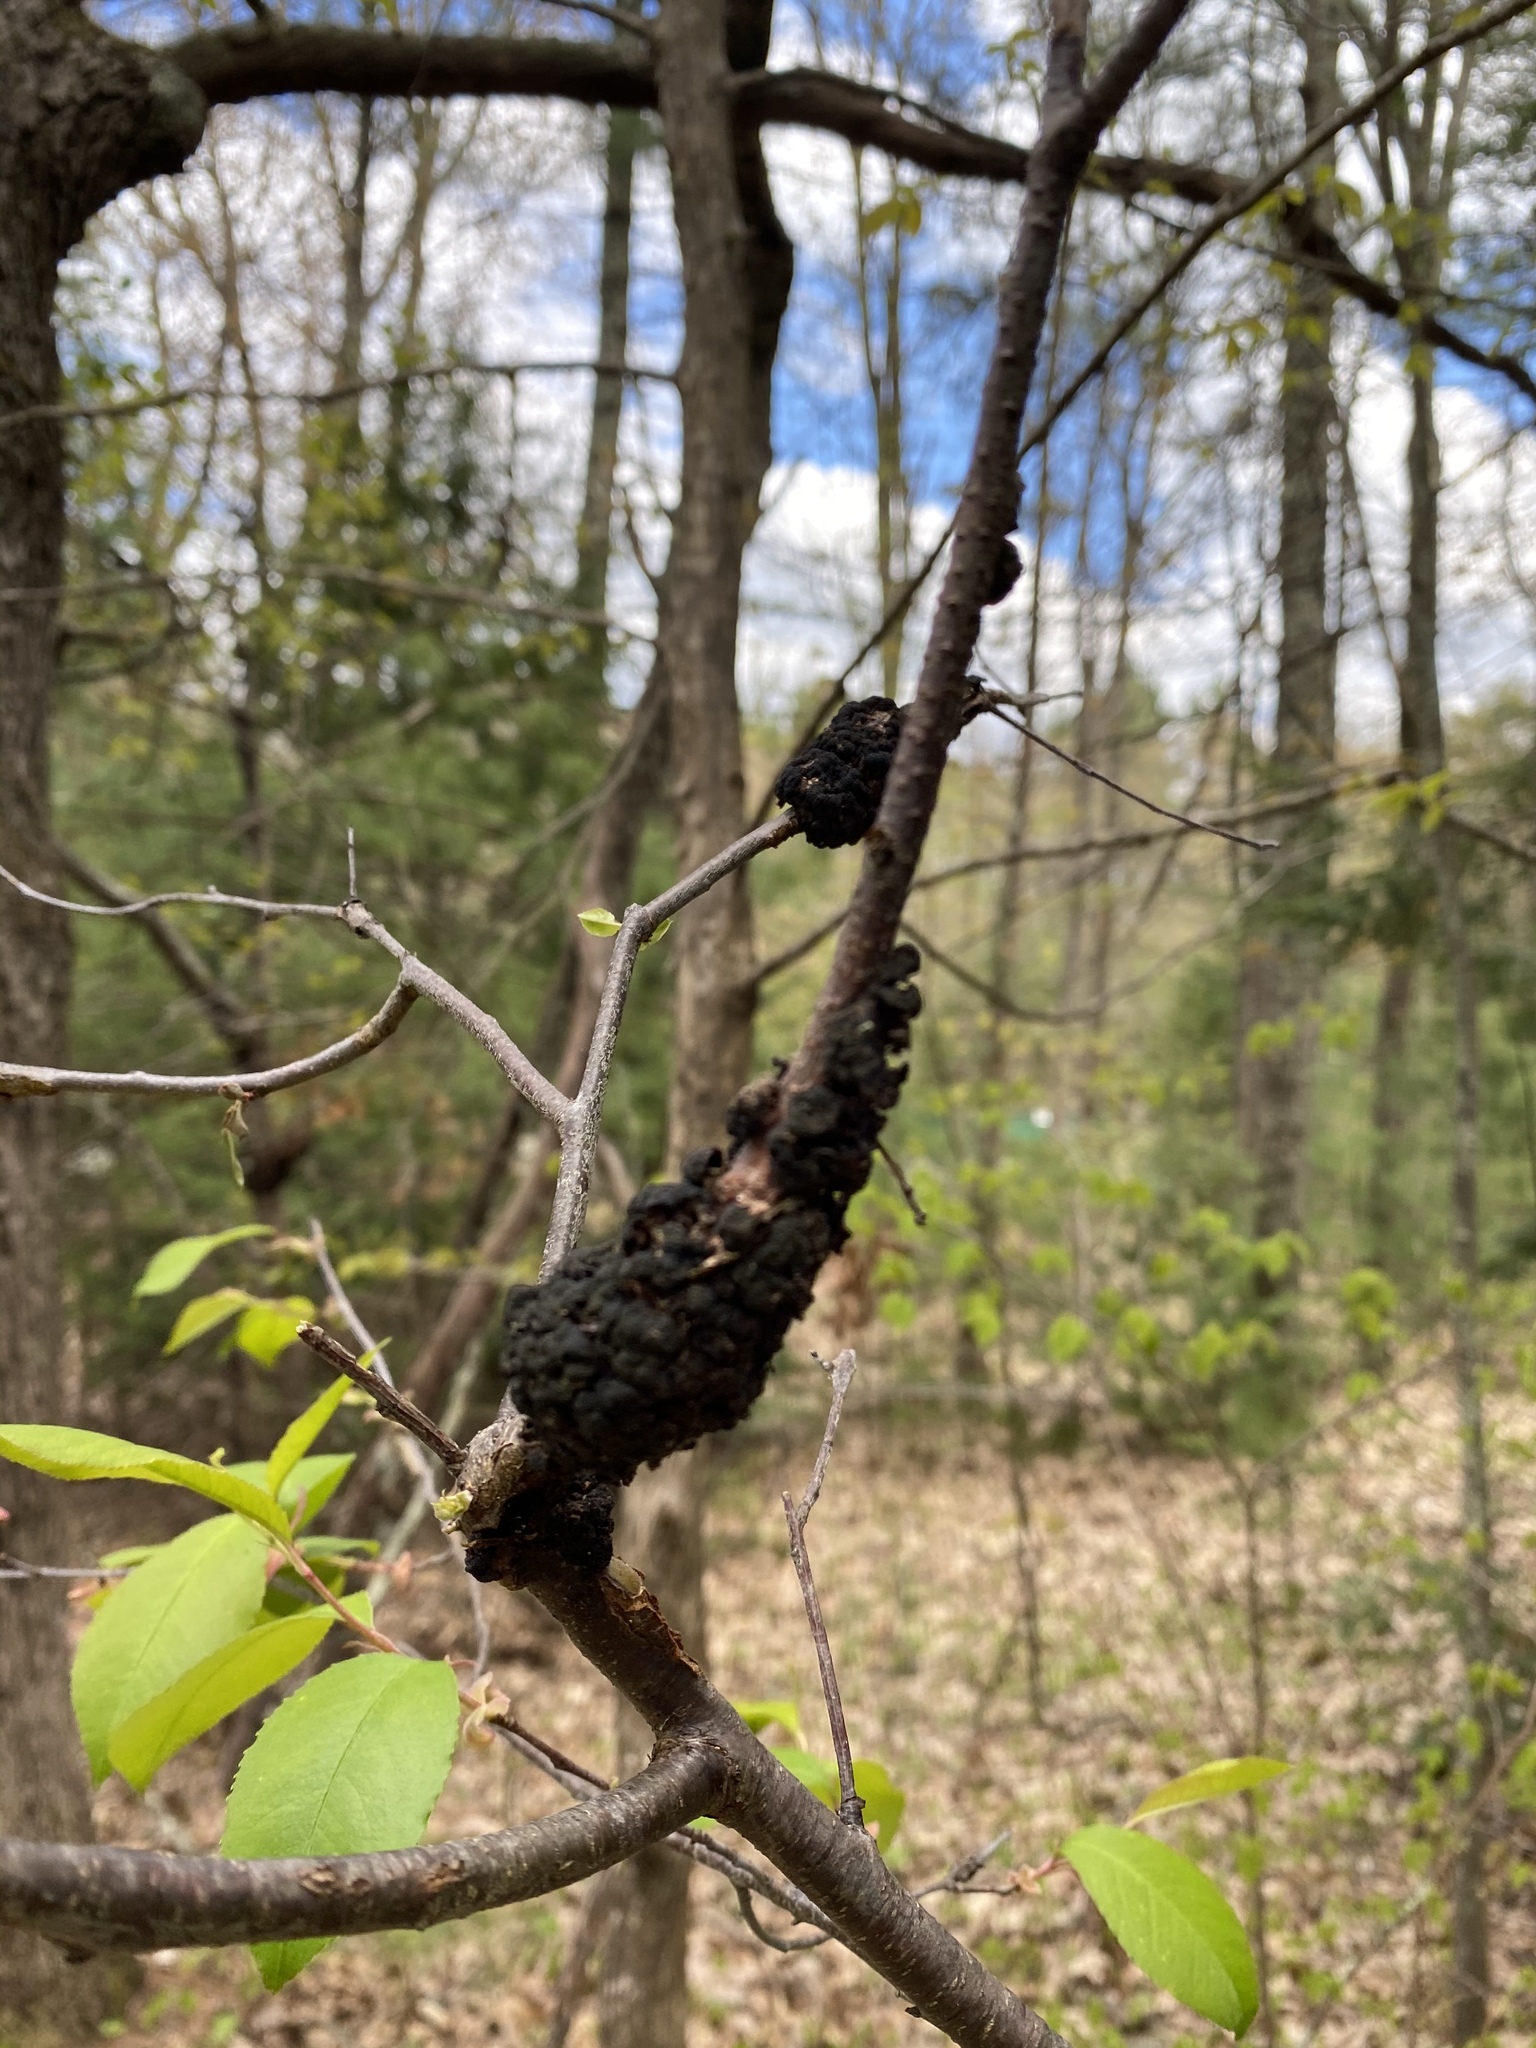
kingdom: Fungi
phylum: Ascomycota
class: Dothideomycetes
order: Venturiales
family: Venturiaceae
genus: Apiosporina
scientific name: Apiosporina morbosa
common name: Black knot
